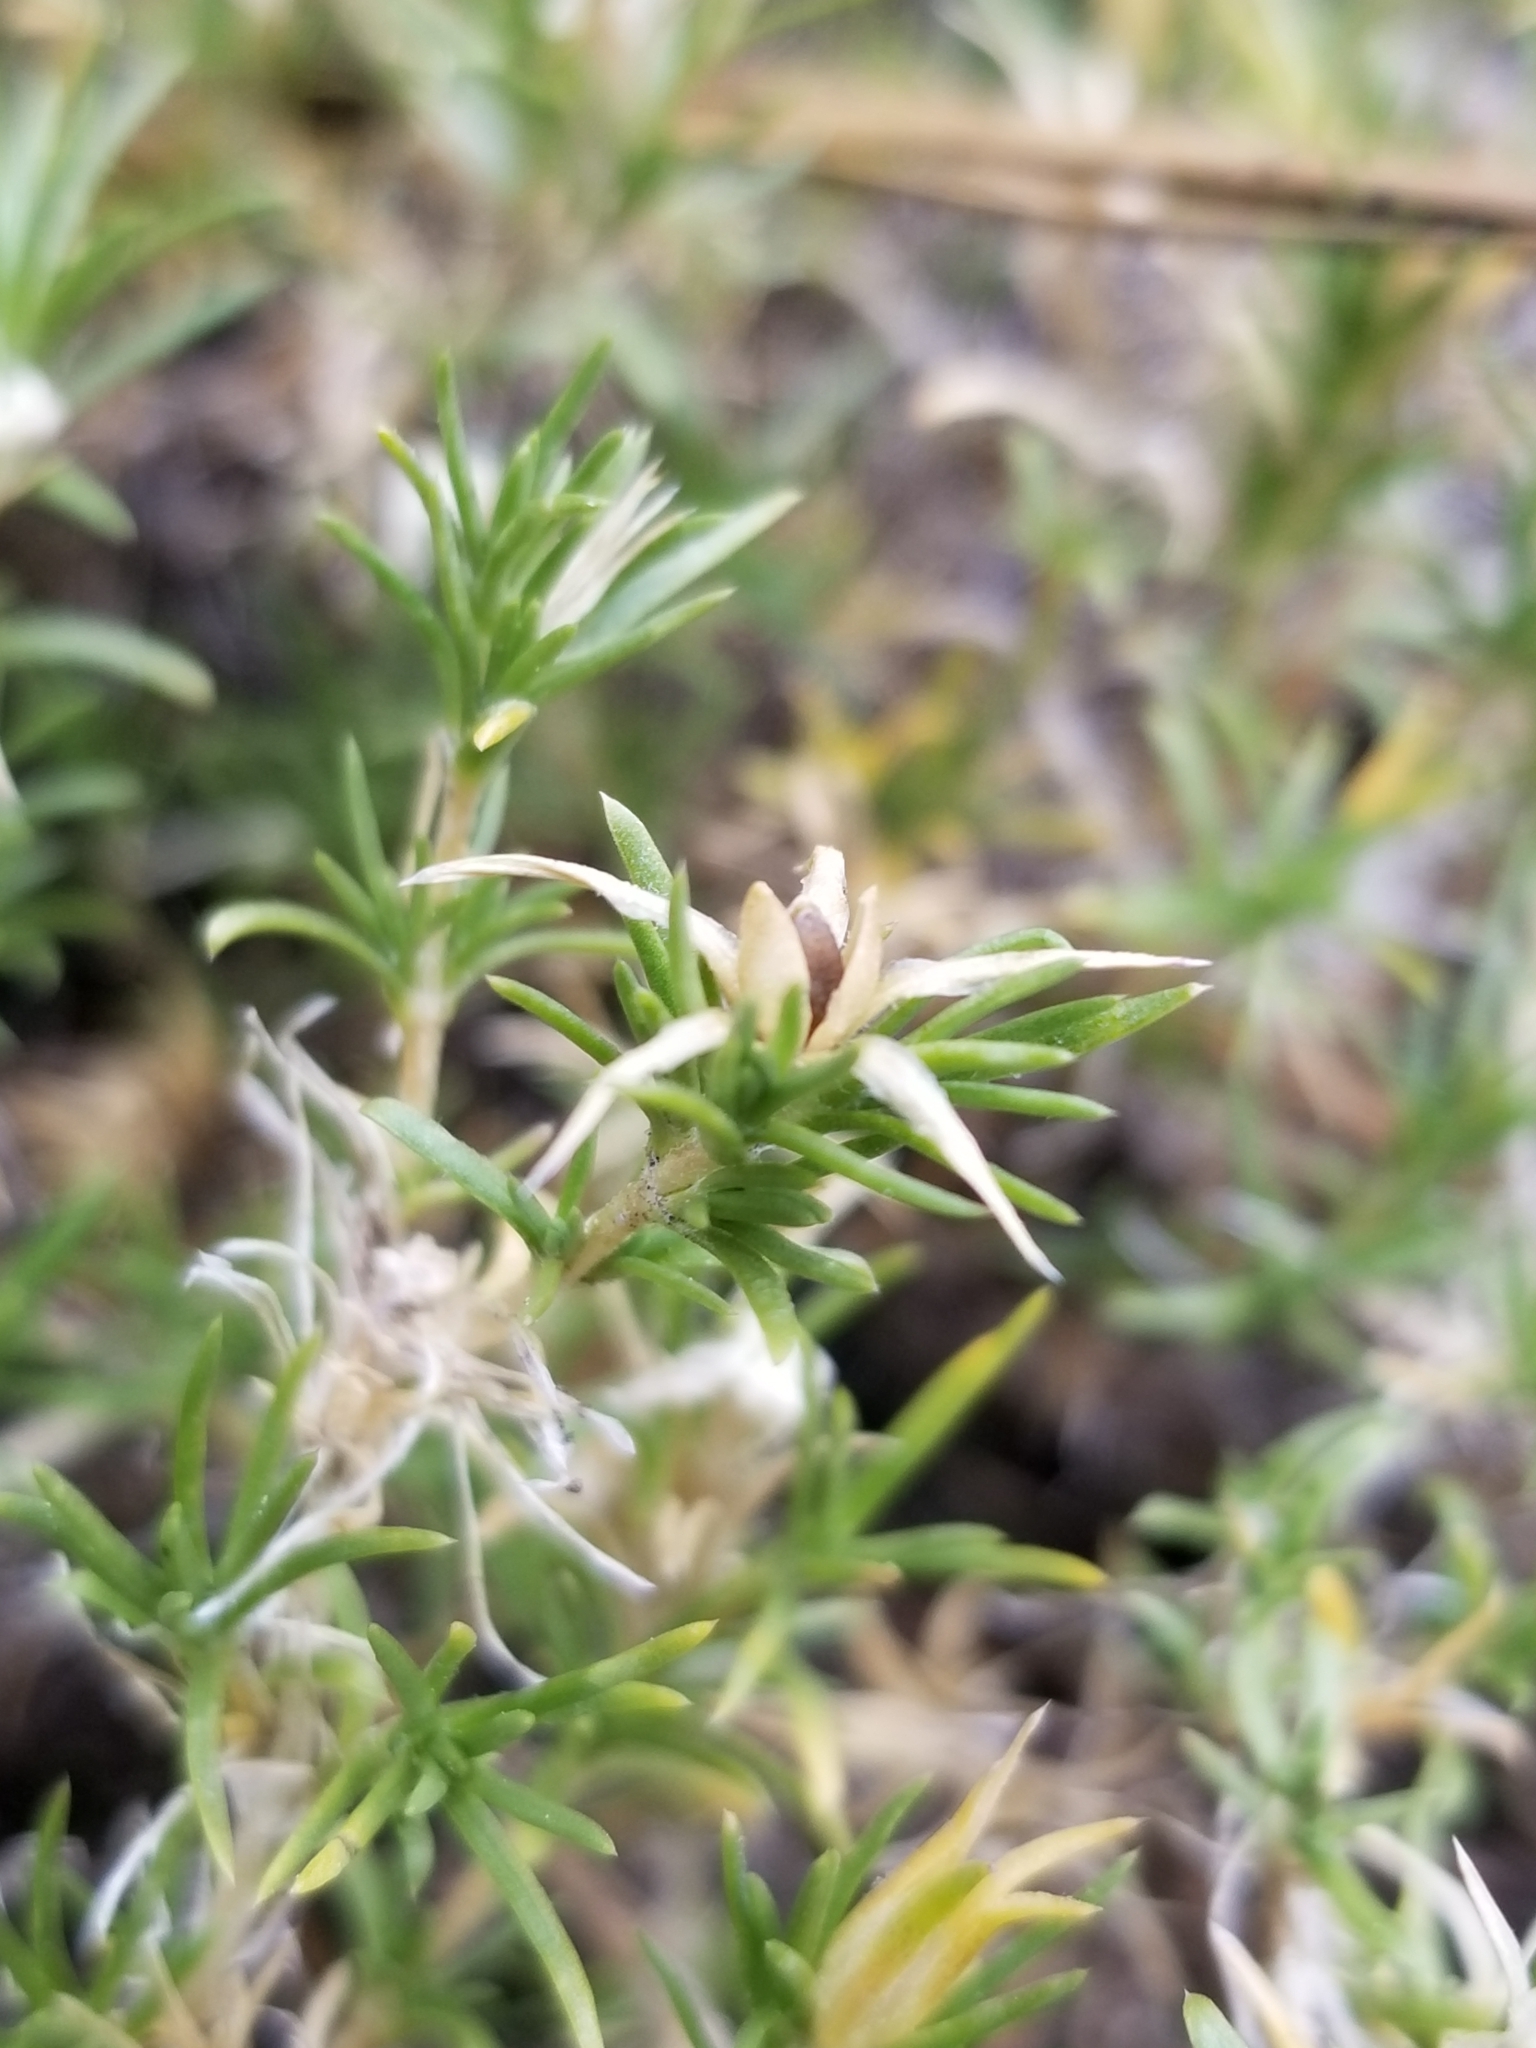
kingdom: Plantae
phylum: Tracheophyta
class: Magnoliopsida
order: Ericales
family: Polemoniaceae
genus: Phlox
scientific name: Phlox diffusa
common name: Mat phlox
